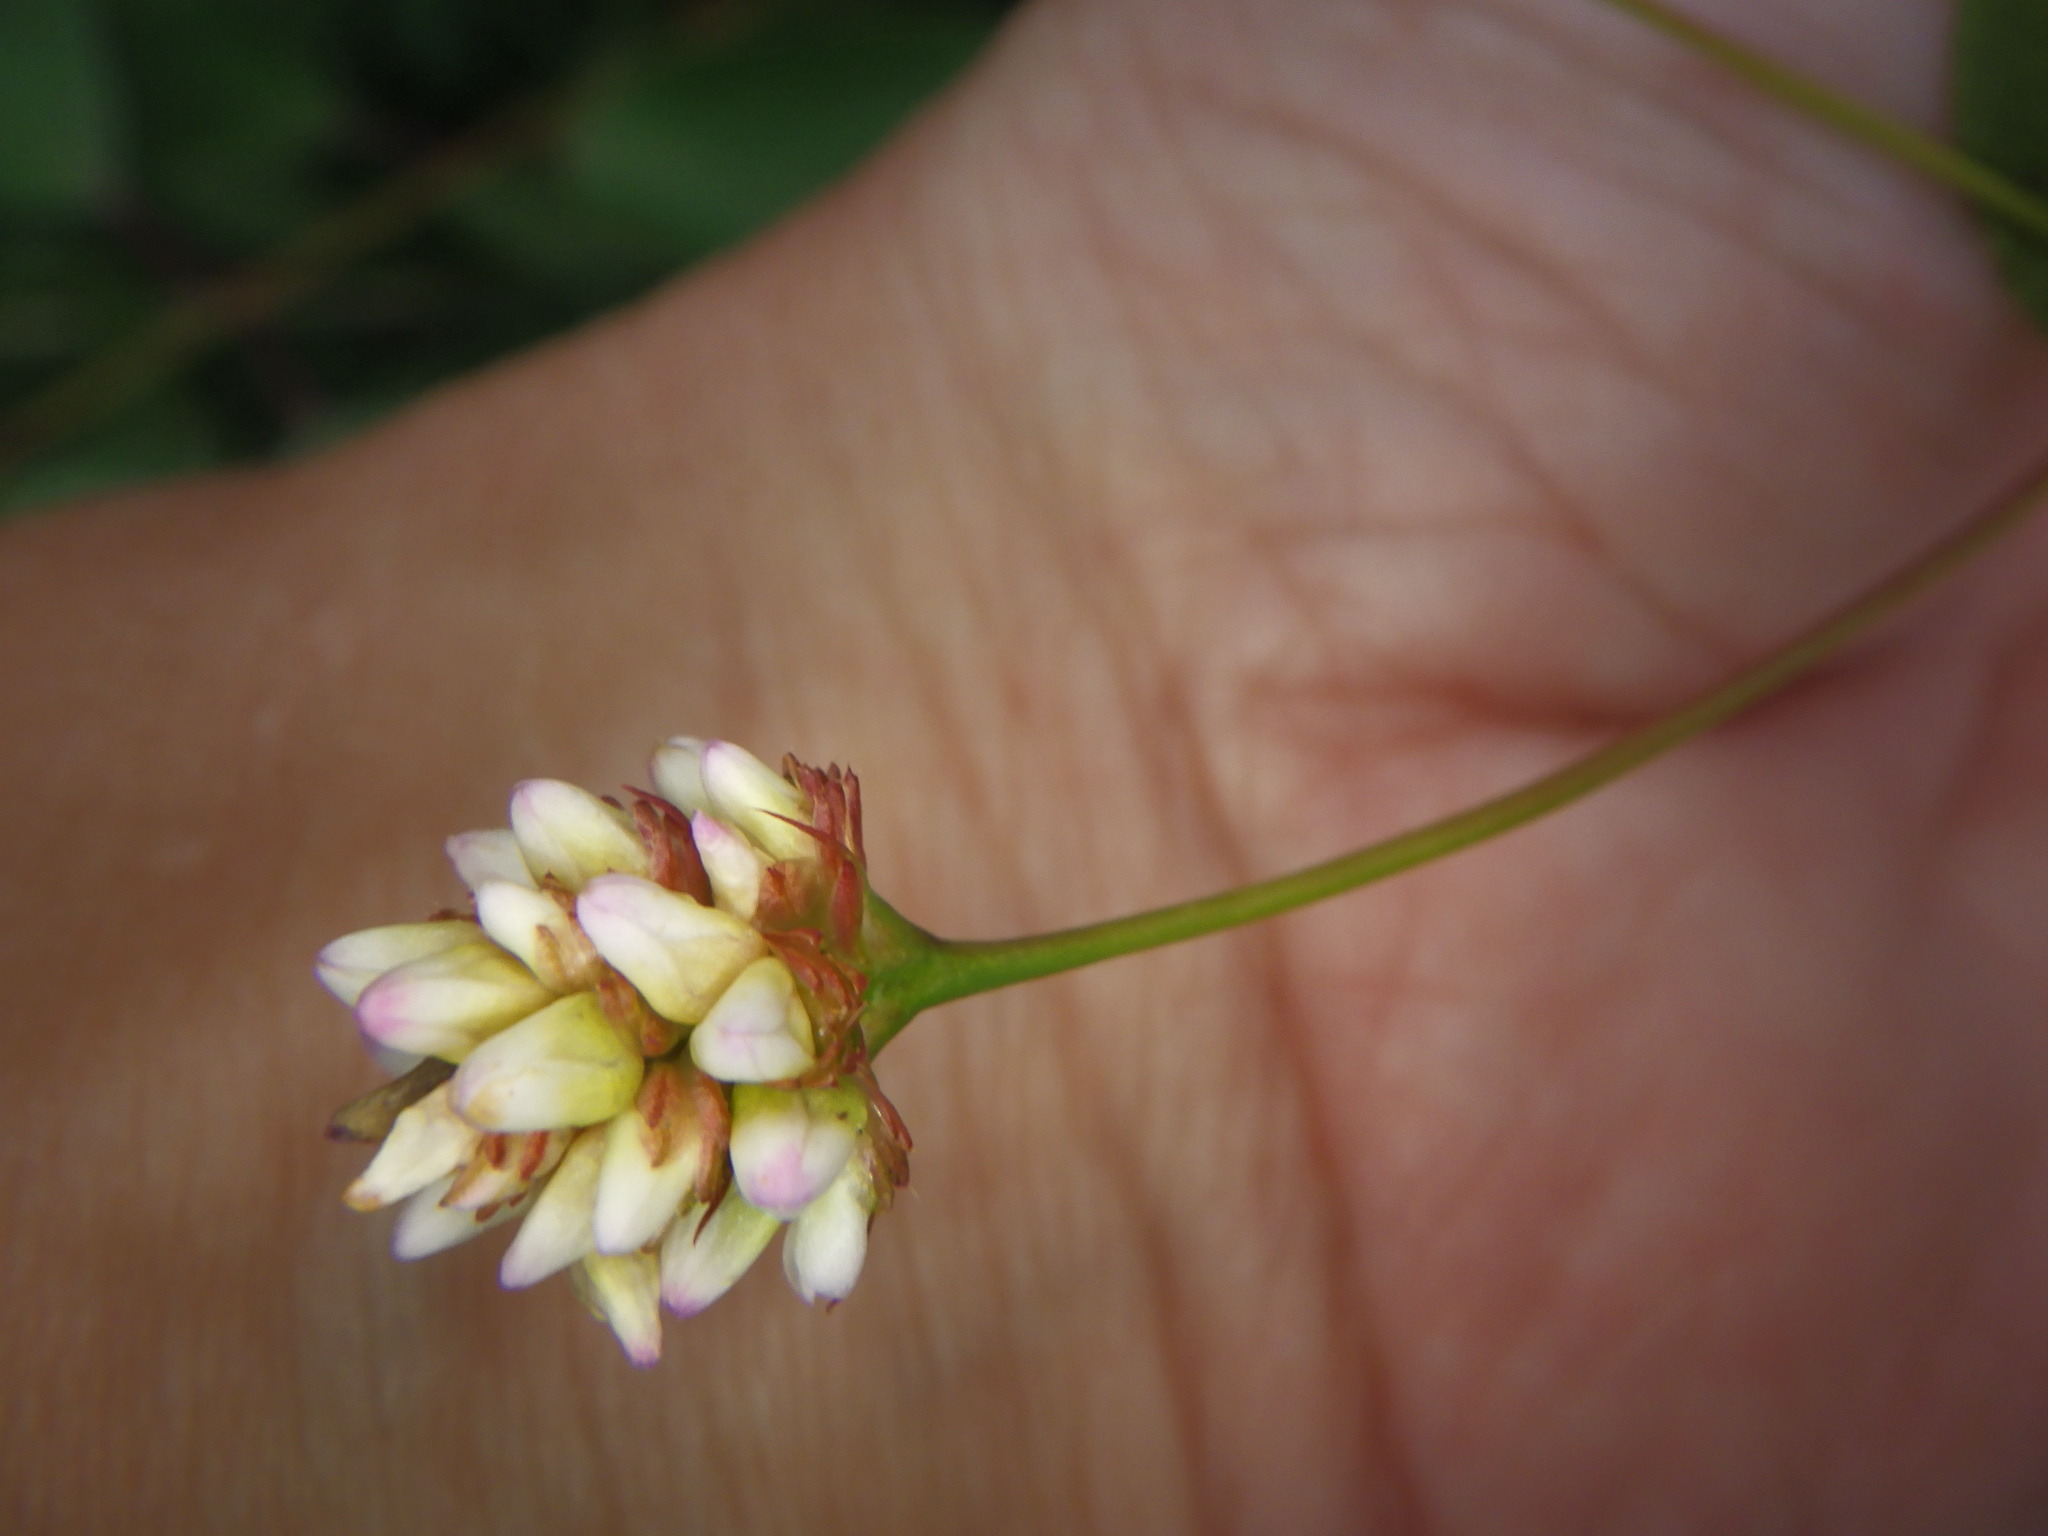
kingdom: Plantae
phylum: Tracheophyta
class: Magnoliopsida
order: Caryophyllales
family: Polygonaceae
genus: Persicaria
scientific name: Persicaria sagittata
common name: American tearthumb
